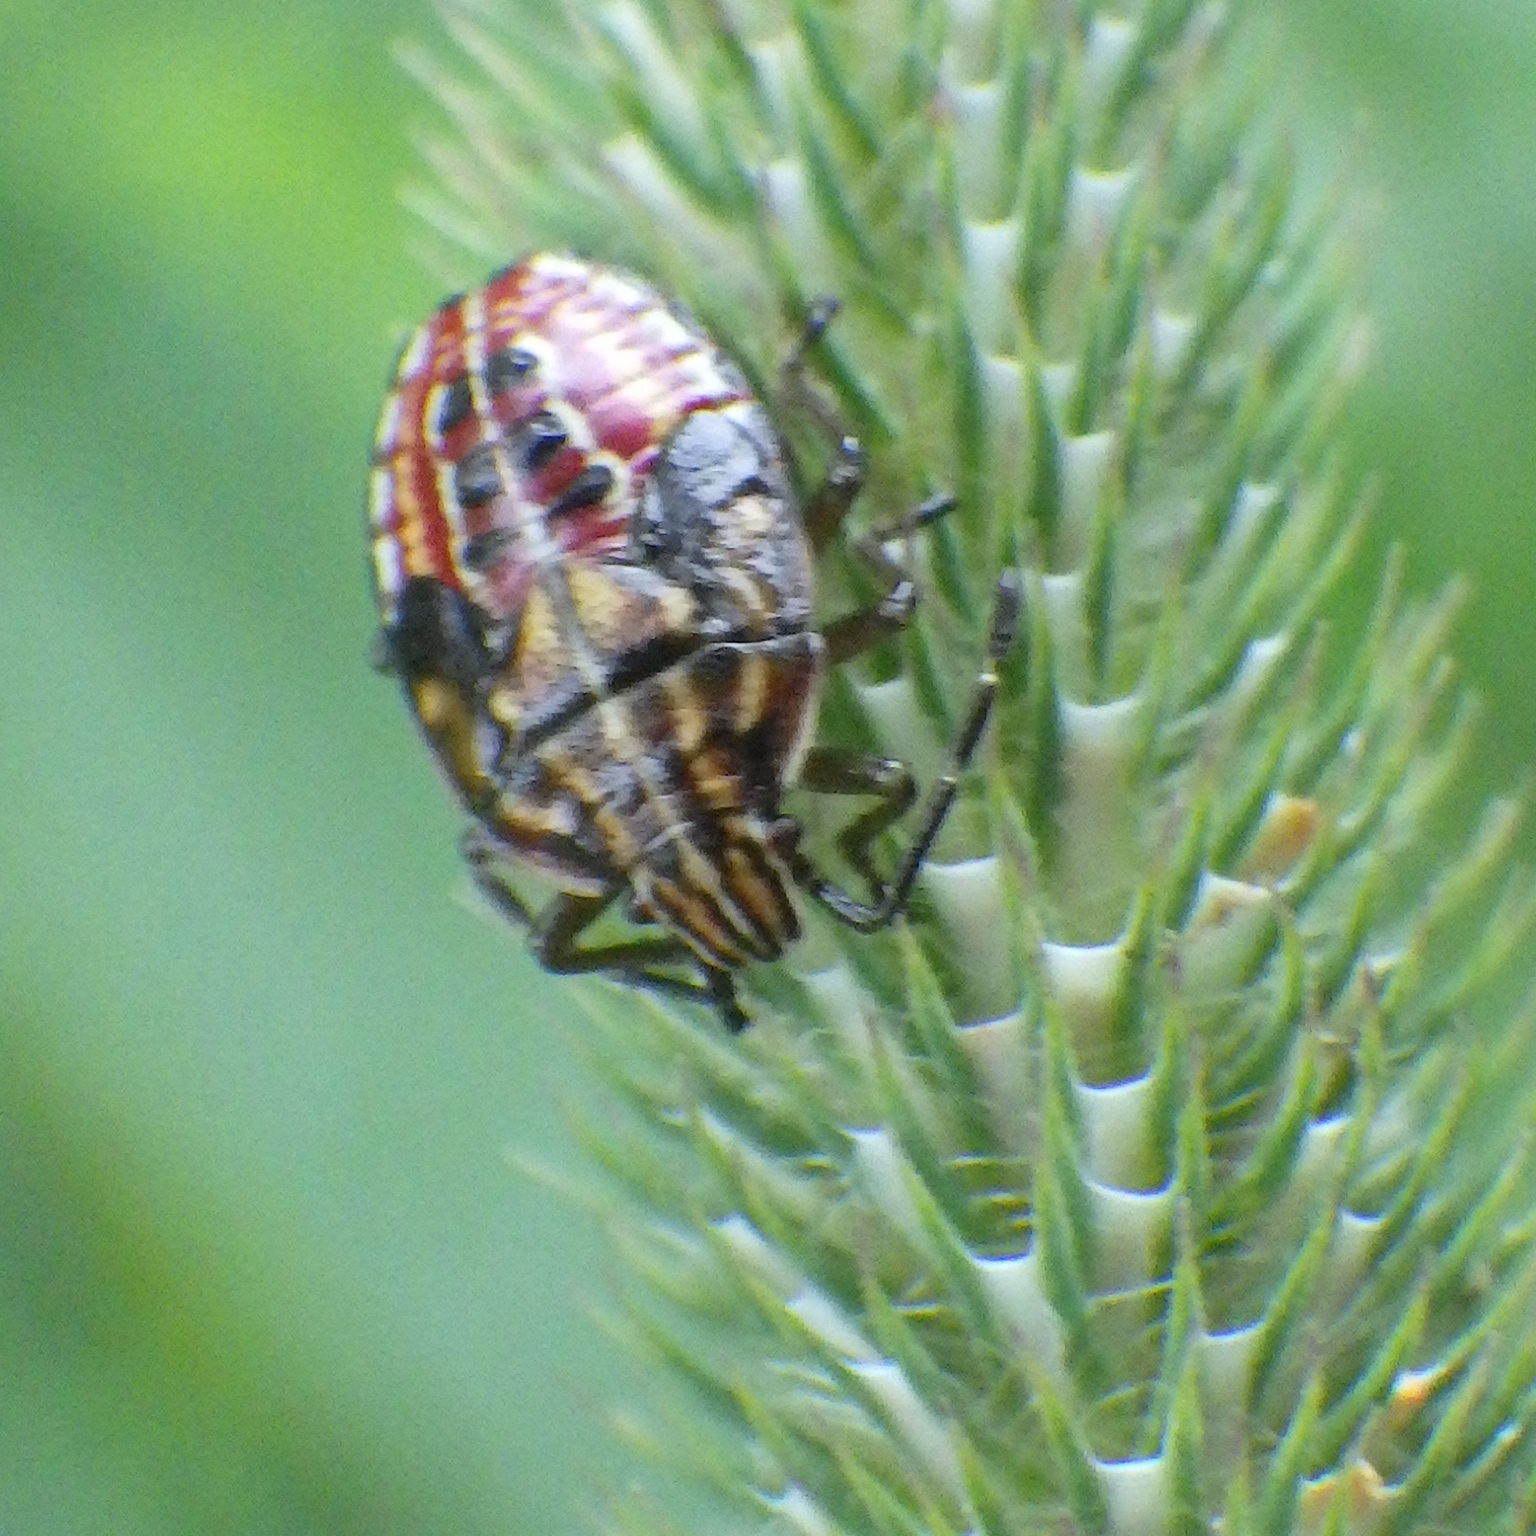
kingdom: Animalia
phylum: Arthropoda
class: Insecta
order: Hemiptera
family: Acanthosomatidae
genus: Elasmucha
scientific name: Elasmucha lateralis
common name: Shield bug
